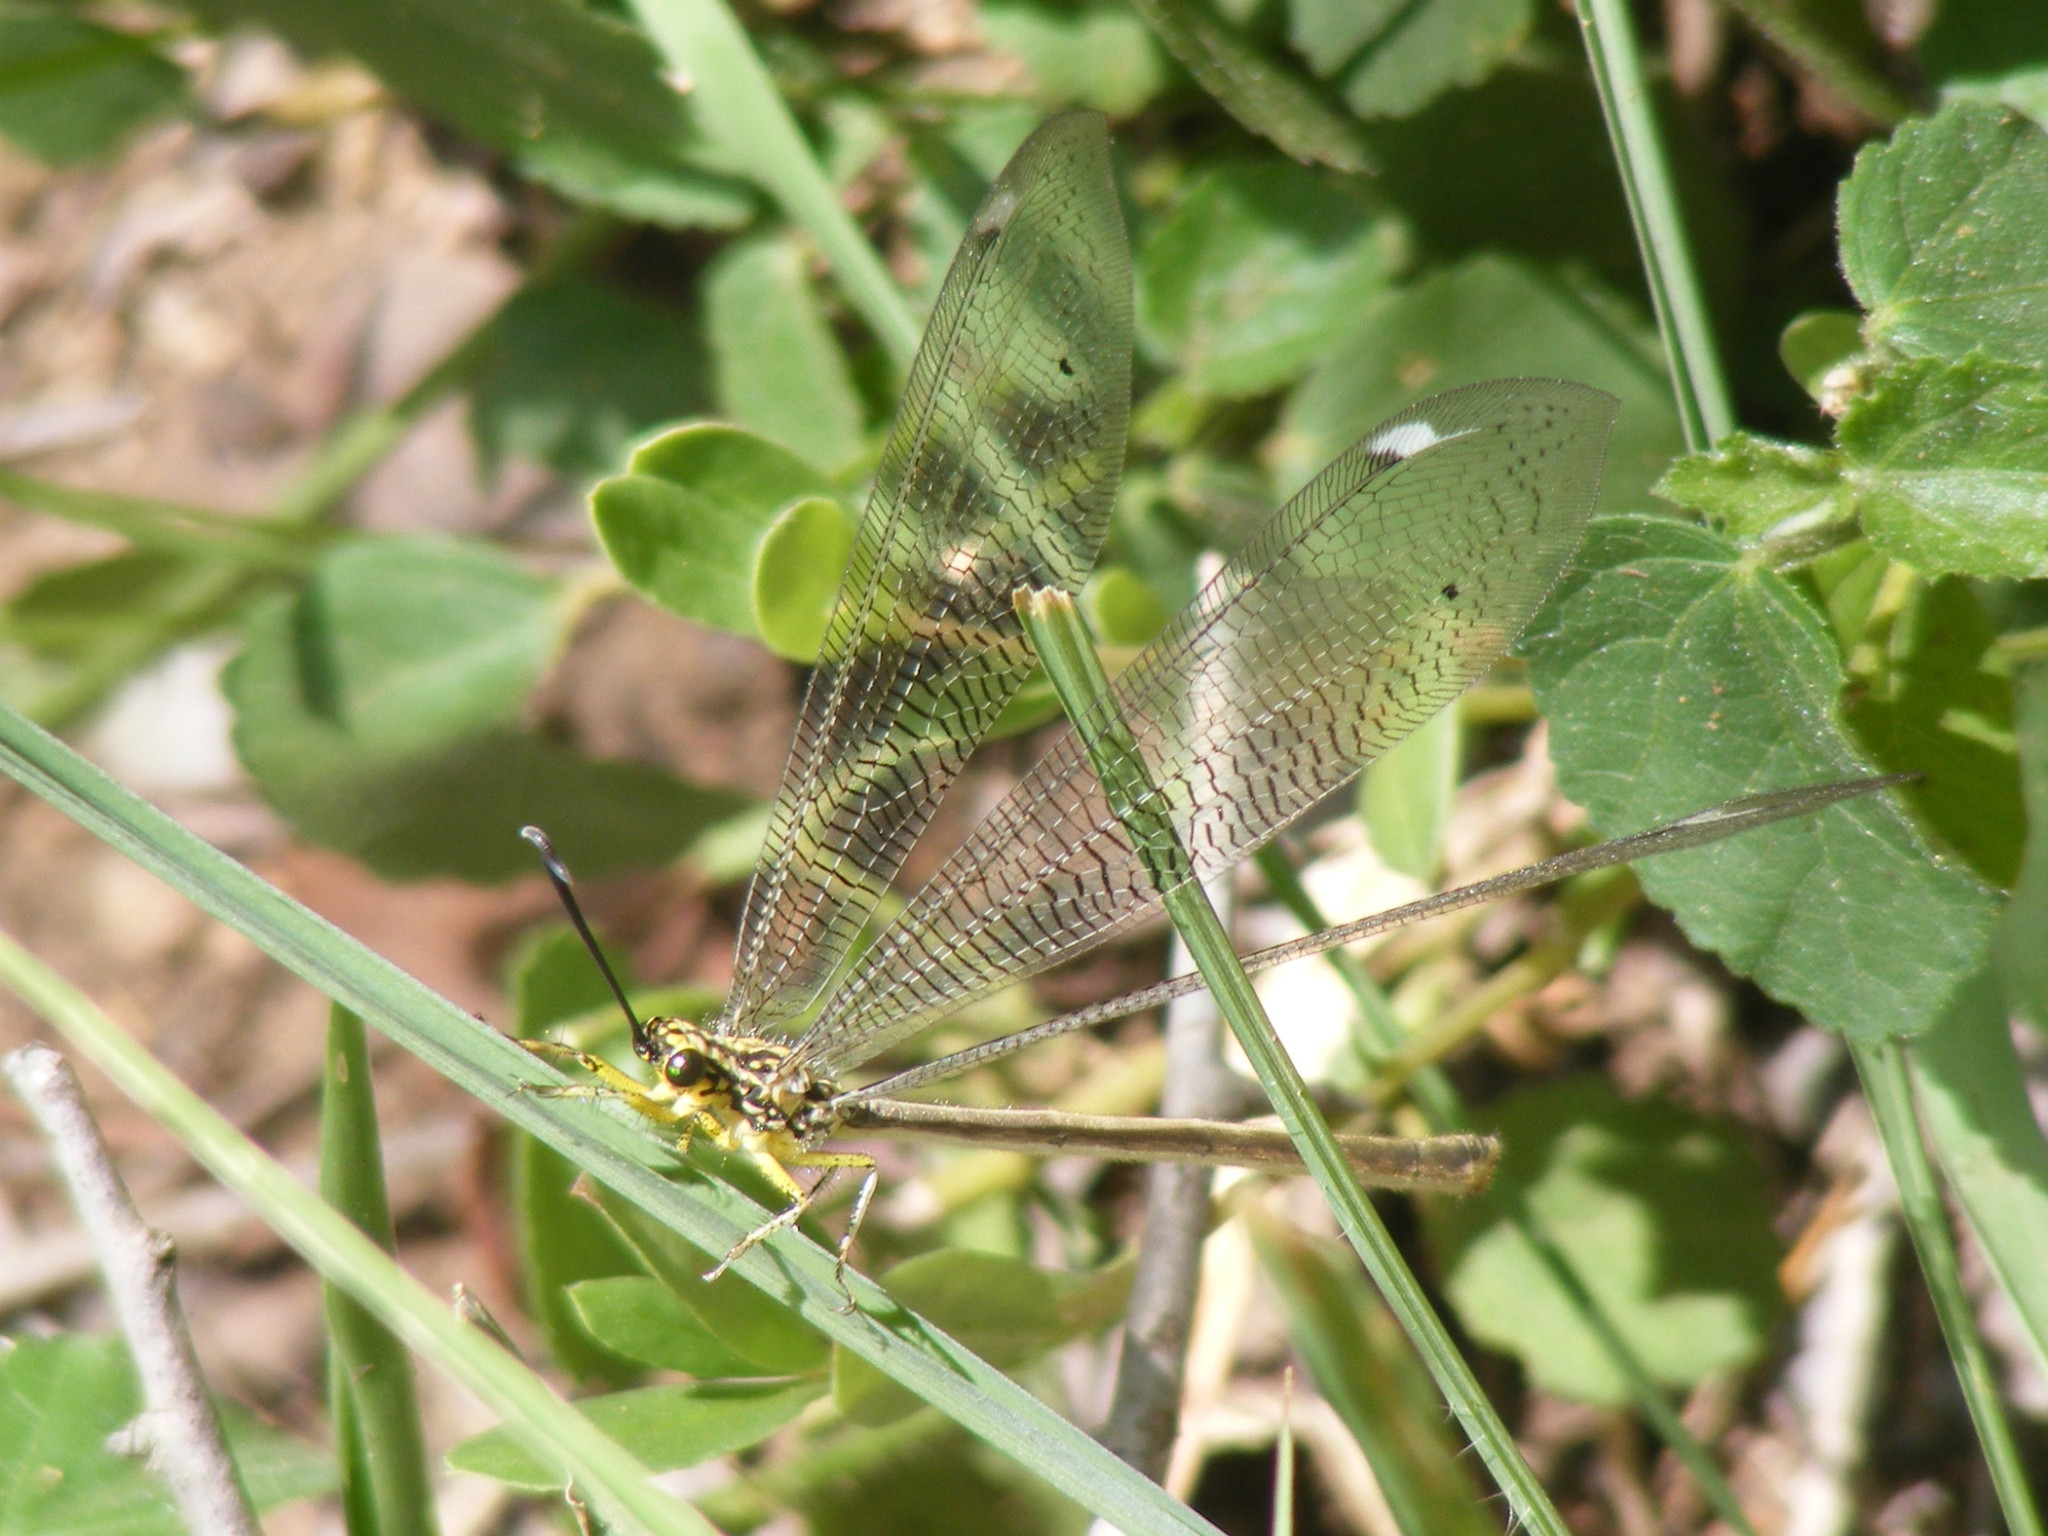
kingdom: Animalia
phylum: Arthropoda
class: Insecta
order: Neuroptera
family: Myrmeleontidae
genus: Hagenomyia
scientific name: Hagenomyia tristis
